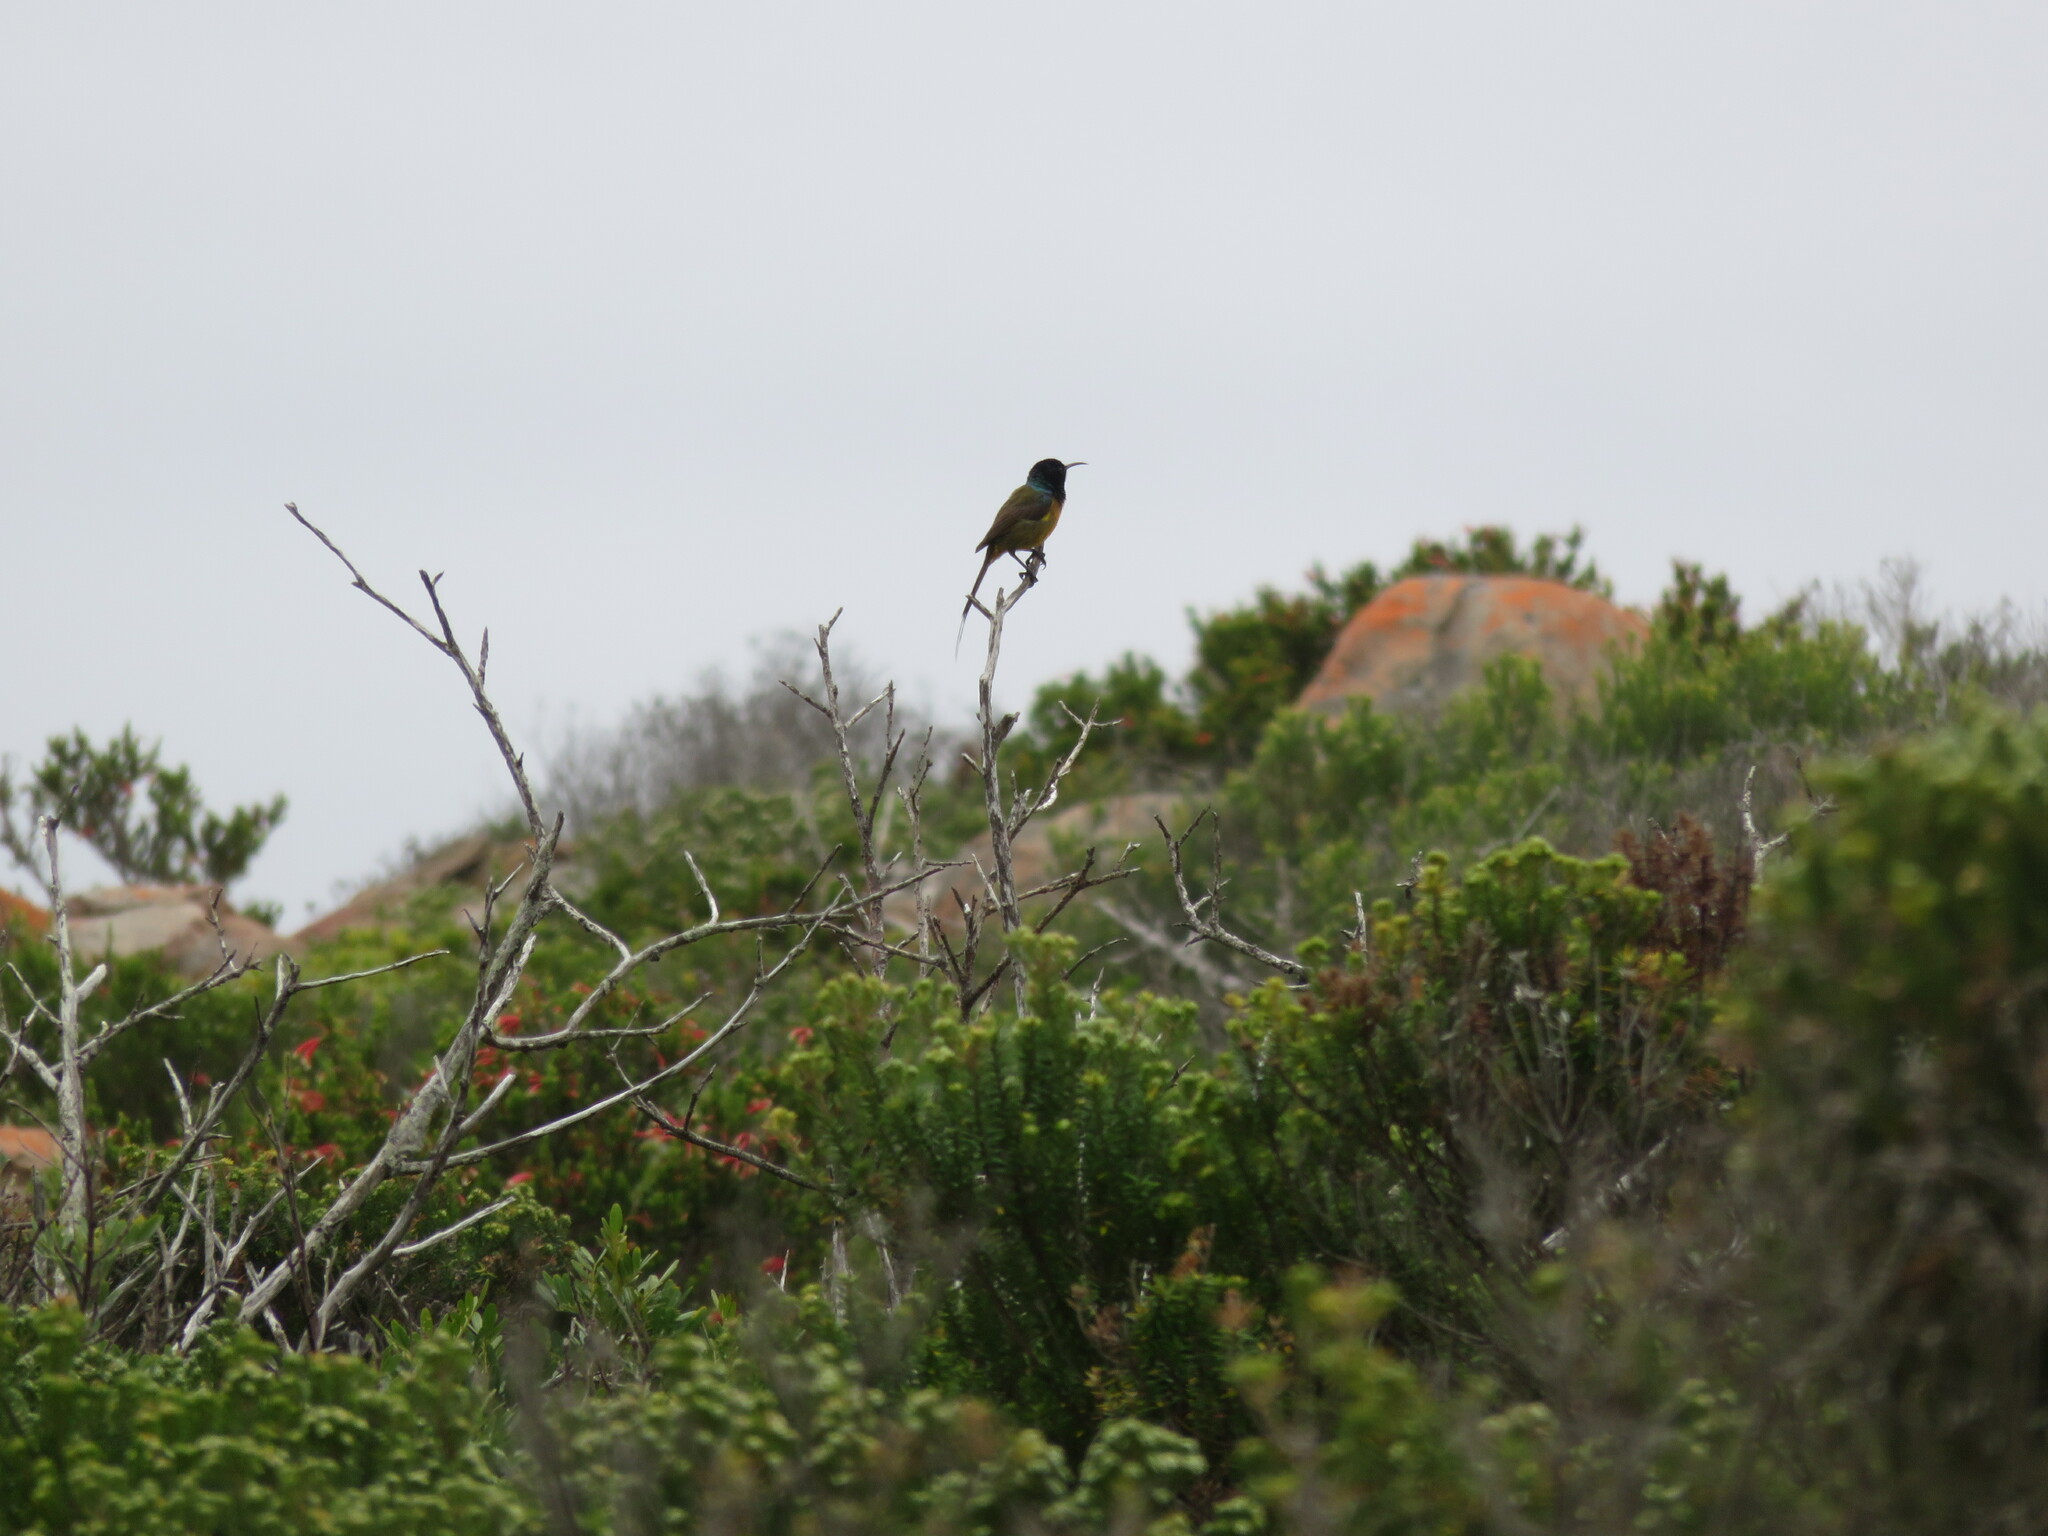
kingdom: Animalia
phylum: Chordata
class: Aves
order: Passeriformes
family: Nectariniidae
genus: Anthobaphes
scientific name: Anthobaphes violacea
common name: Orange-breasted sunbird
